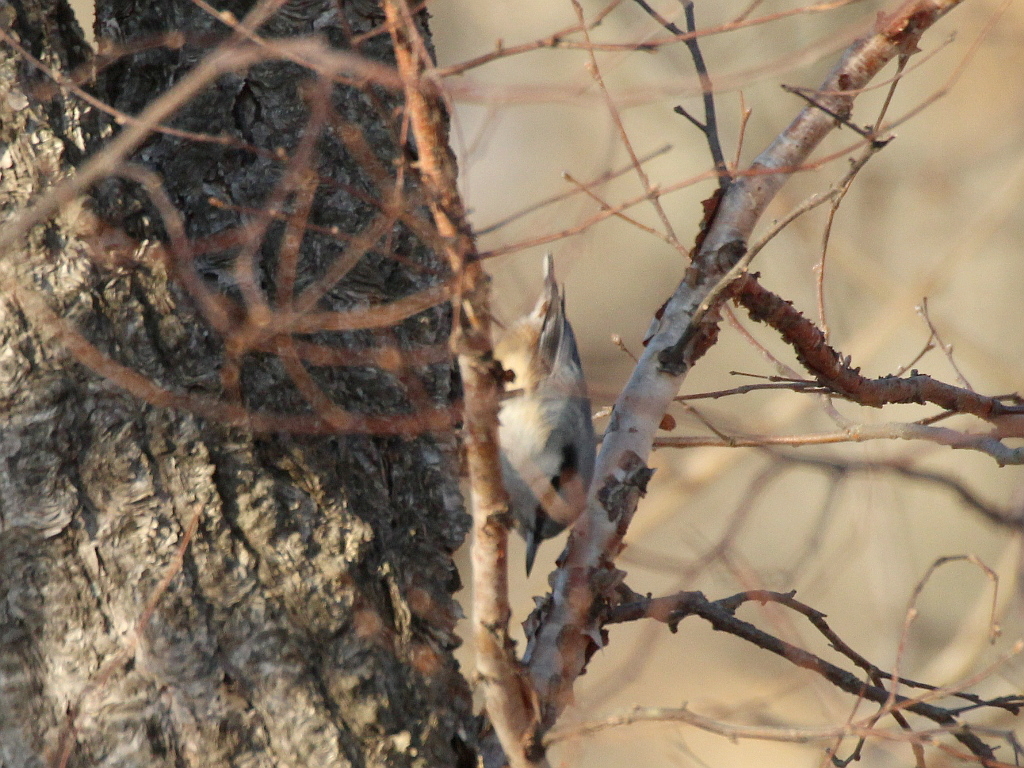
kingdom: Animalia
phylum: Chordata
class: Aves
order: Passeriformes
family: Sittidae
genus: Sitta
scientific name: Sitta europaea
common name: Eurasian nuthatch
